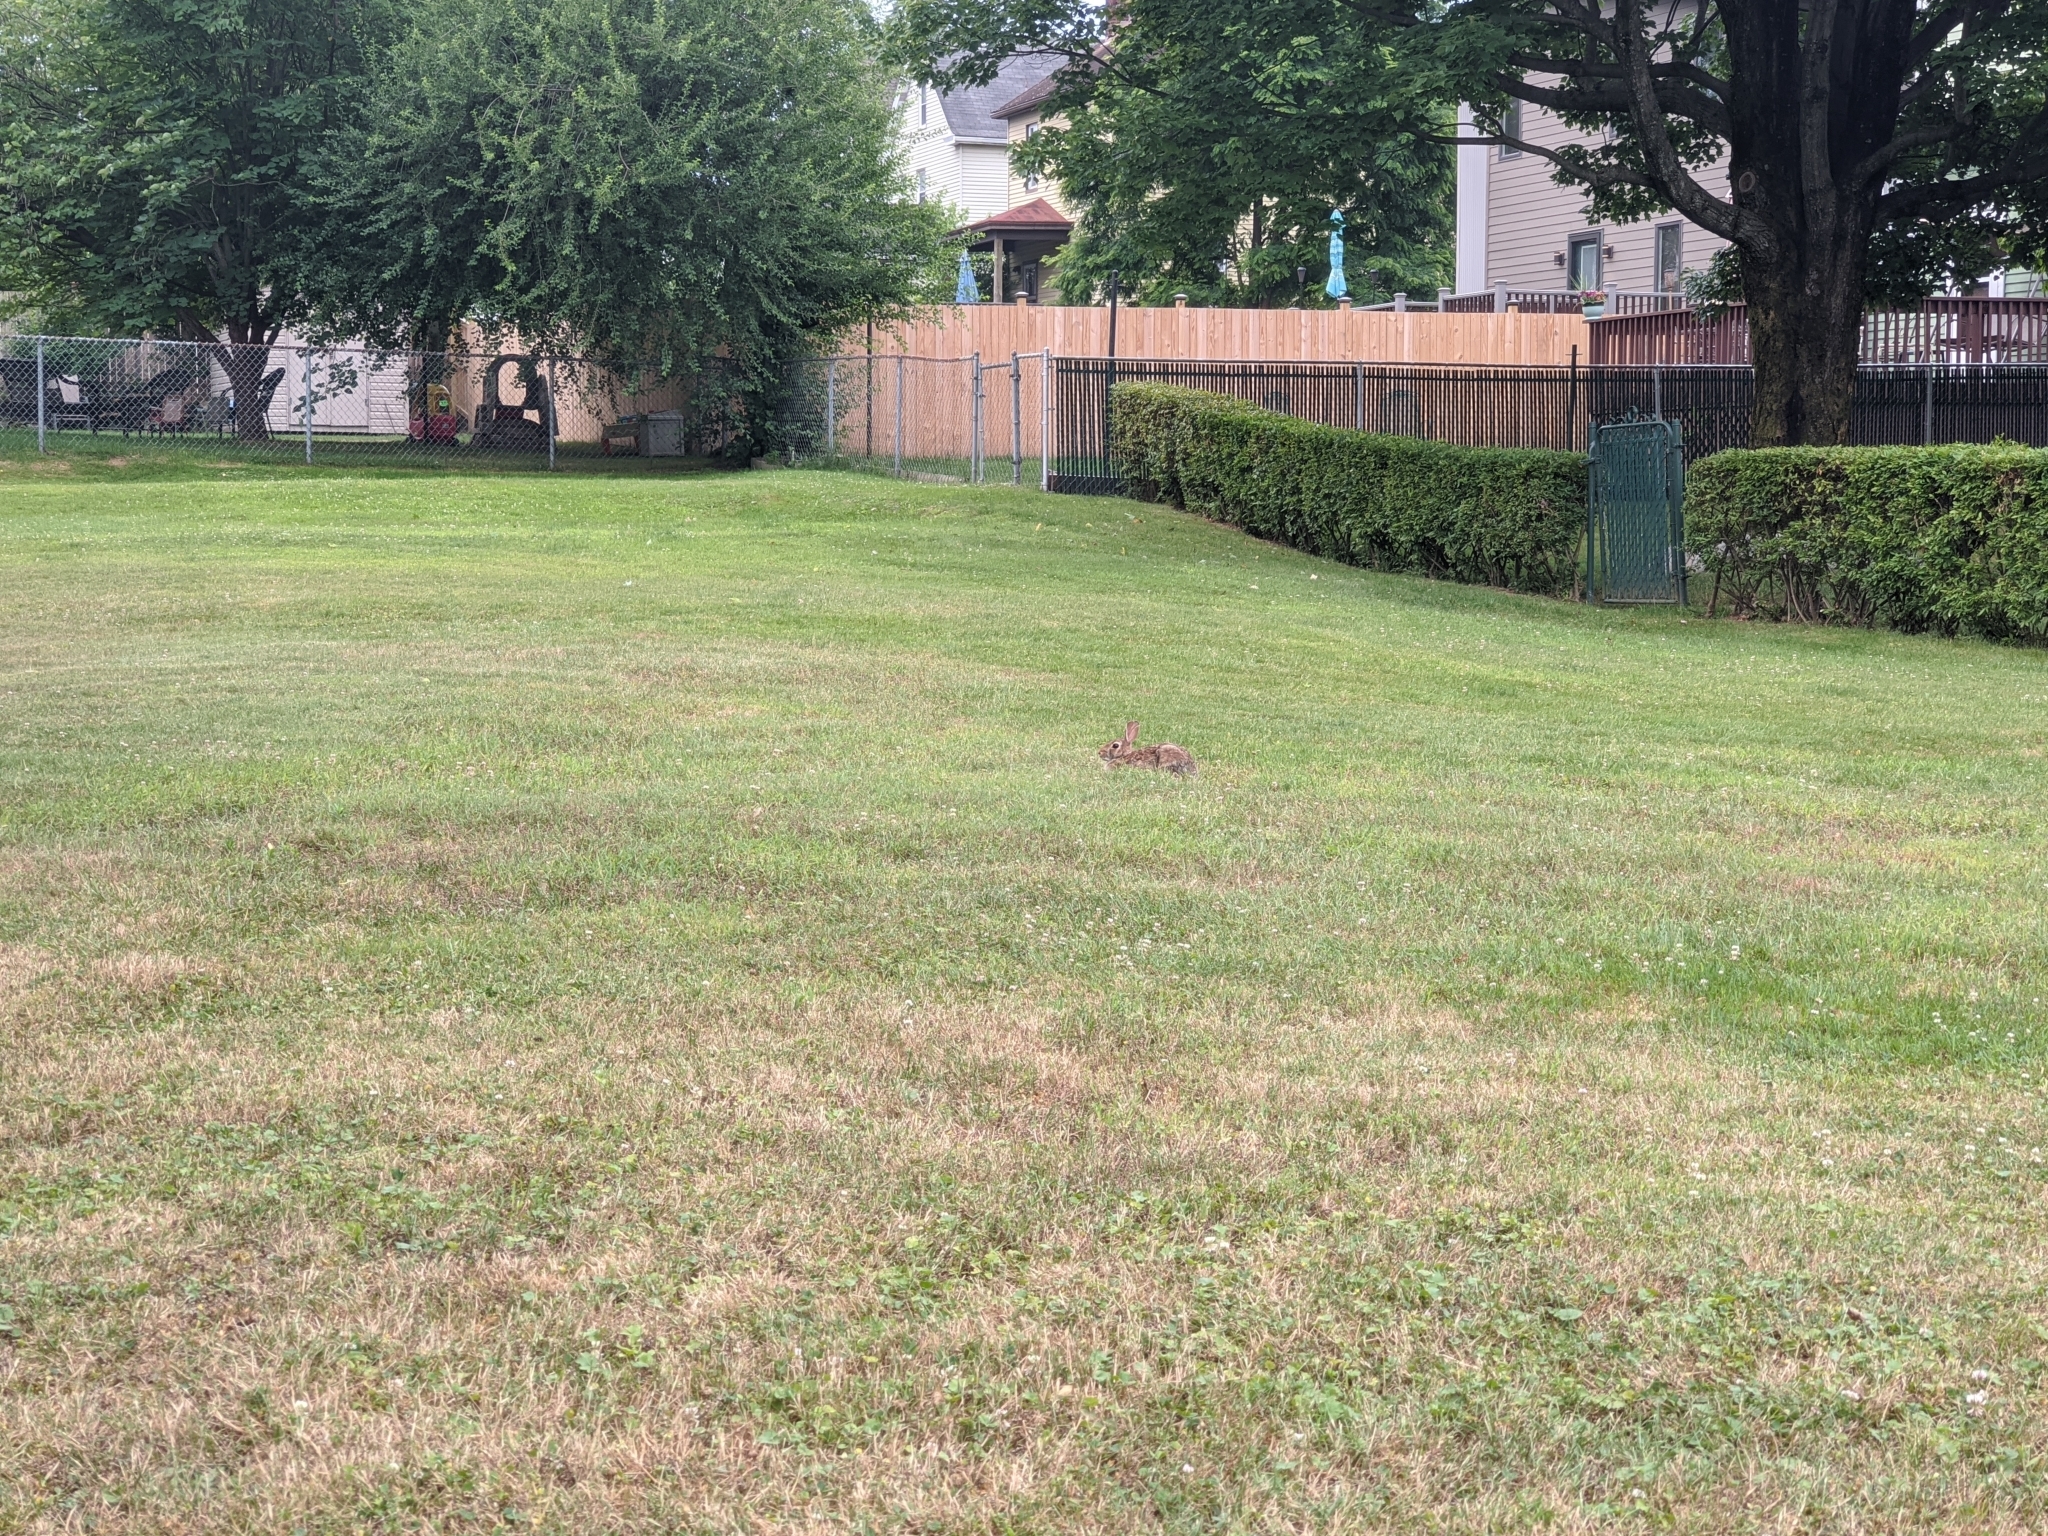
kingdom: Animalia
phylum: Chordata
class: Mammalia
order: Lagomorpha
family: Leporidae
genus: Sylvilagus
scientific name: Sylvilagus floridanus
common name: Eastern cottontail
